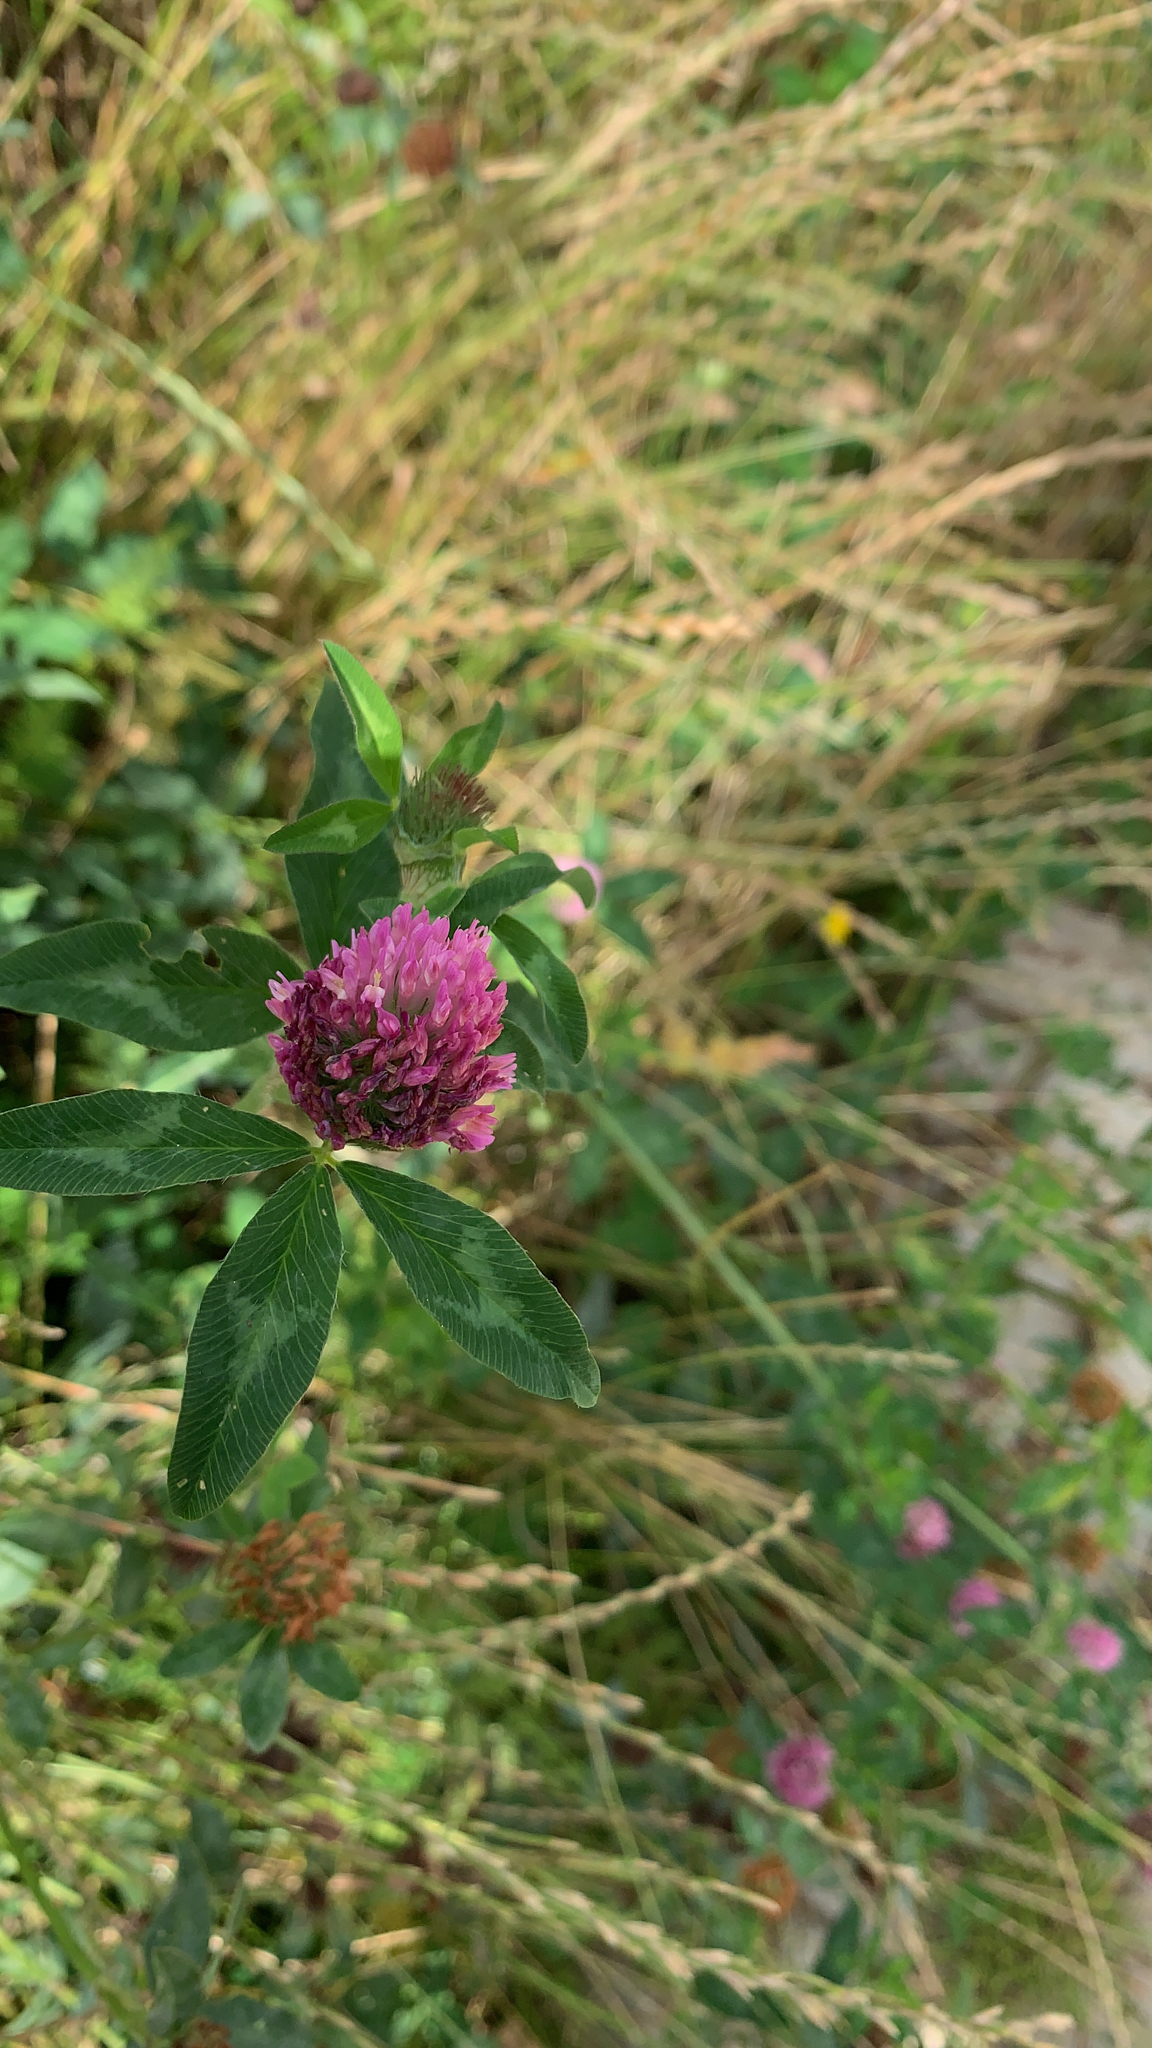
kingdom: Plantae
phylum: Tracheophyta
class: Magnoliopsida
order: Fabales
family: Fabaceae
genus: Trifolium
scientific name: Trifolium pratense
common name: Red clover
